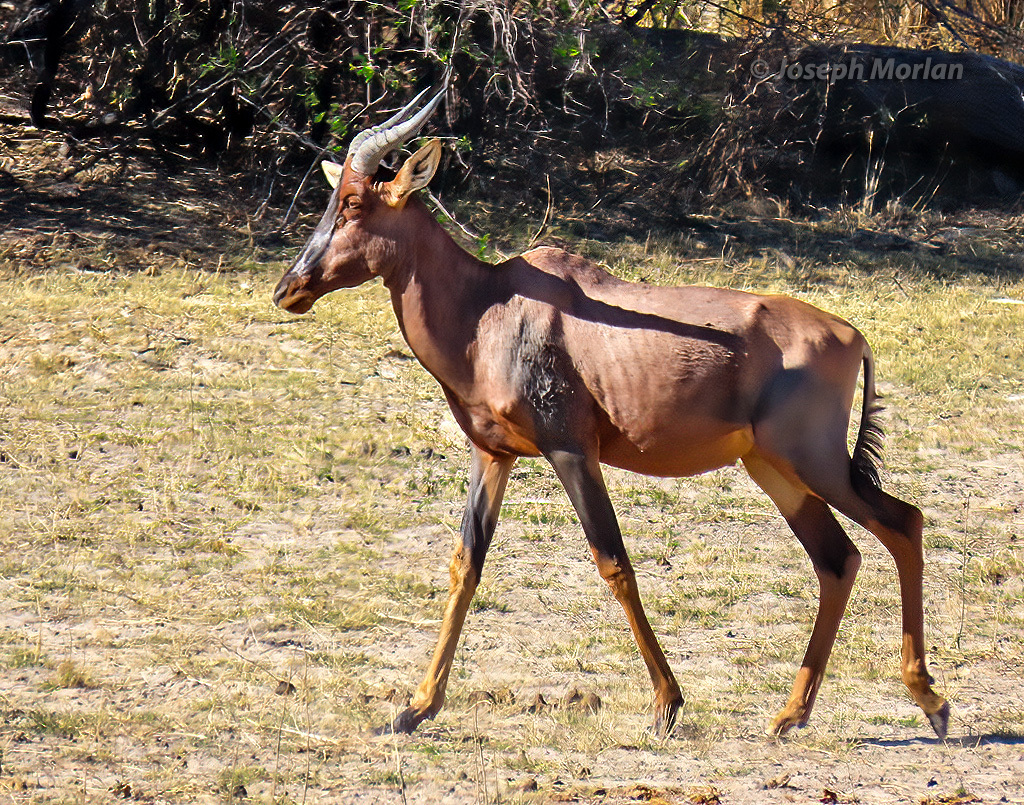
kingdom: Animalia
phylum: Chordata
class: Mammalia
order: Artiodactyla
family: Bovidae
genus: Damaliscus
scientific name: Damaliscus lunatus
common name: Common tsessebe
